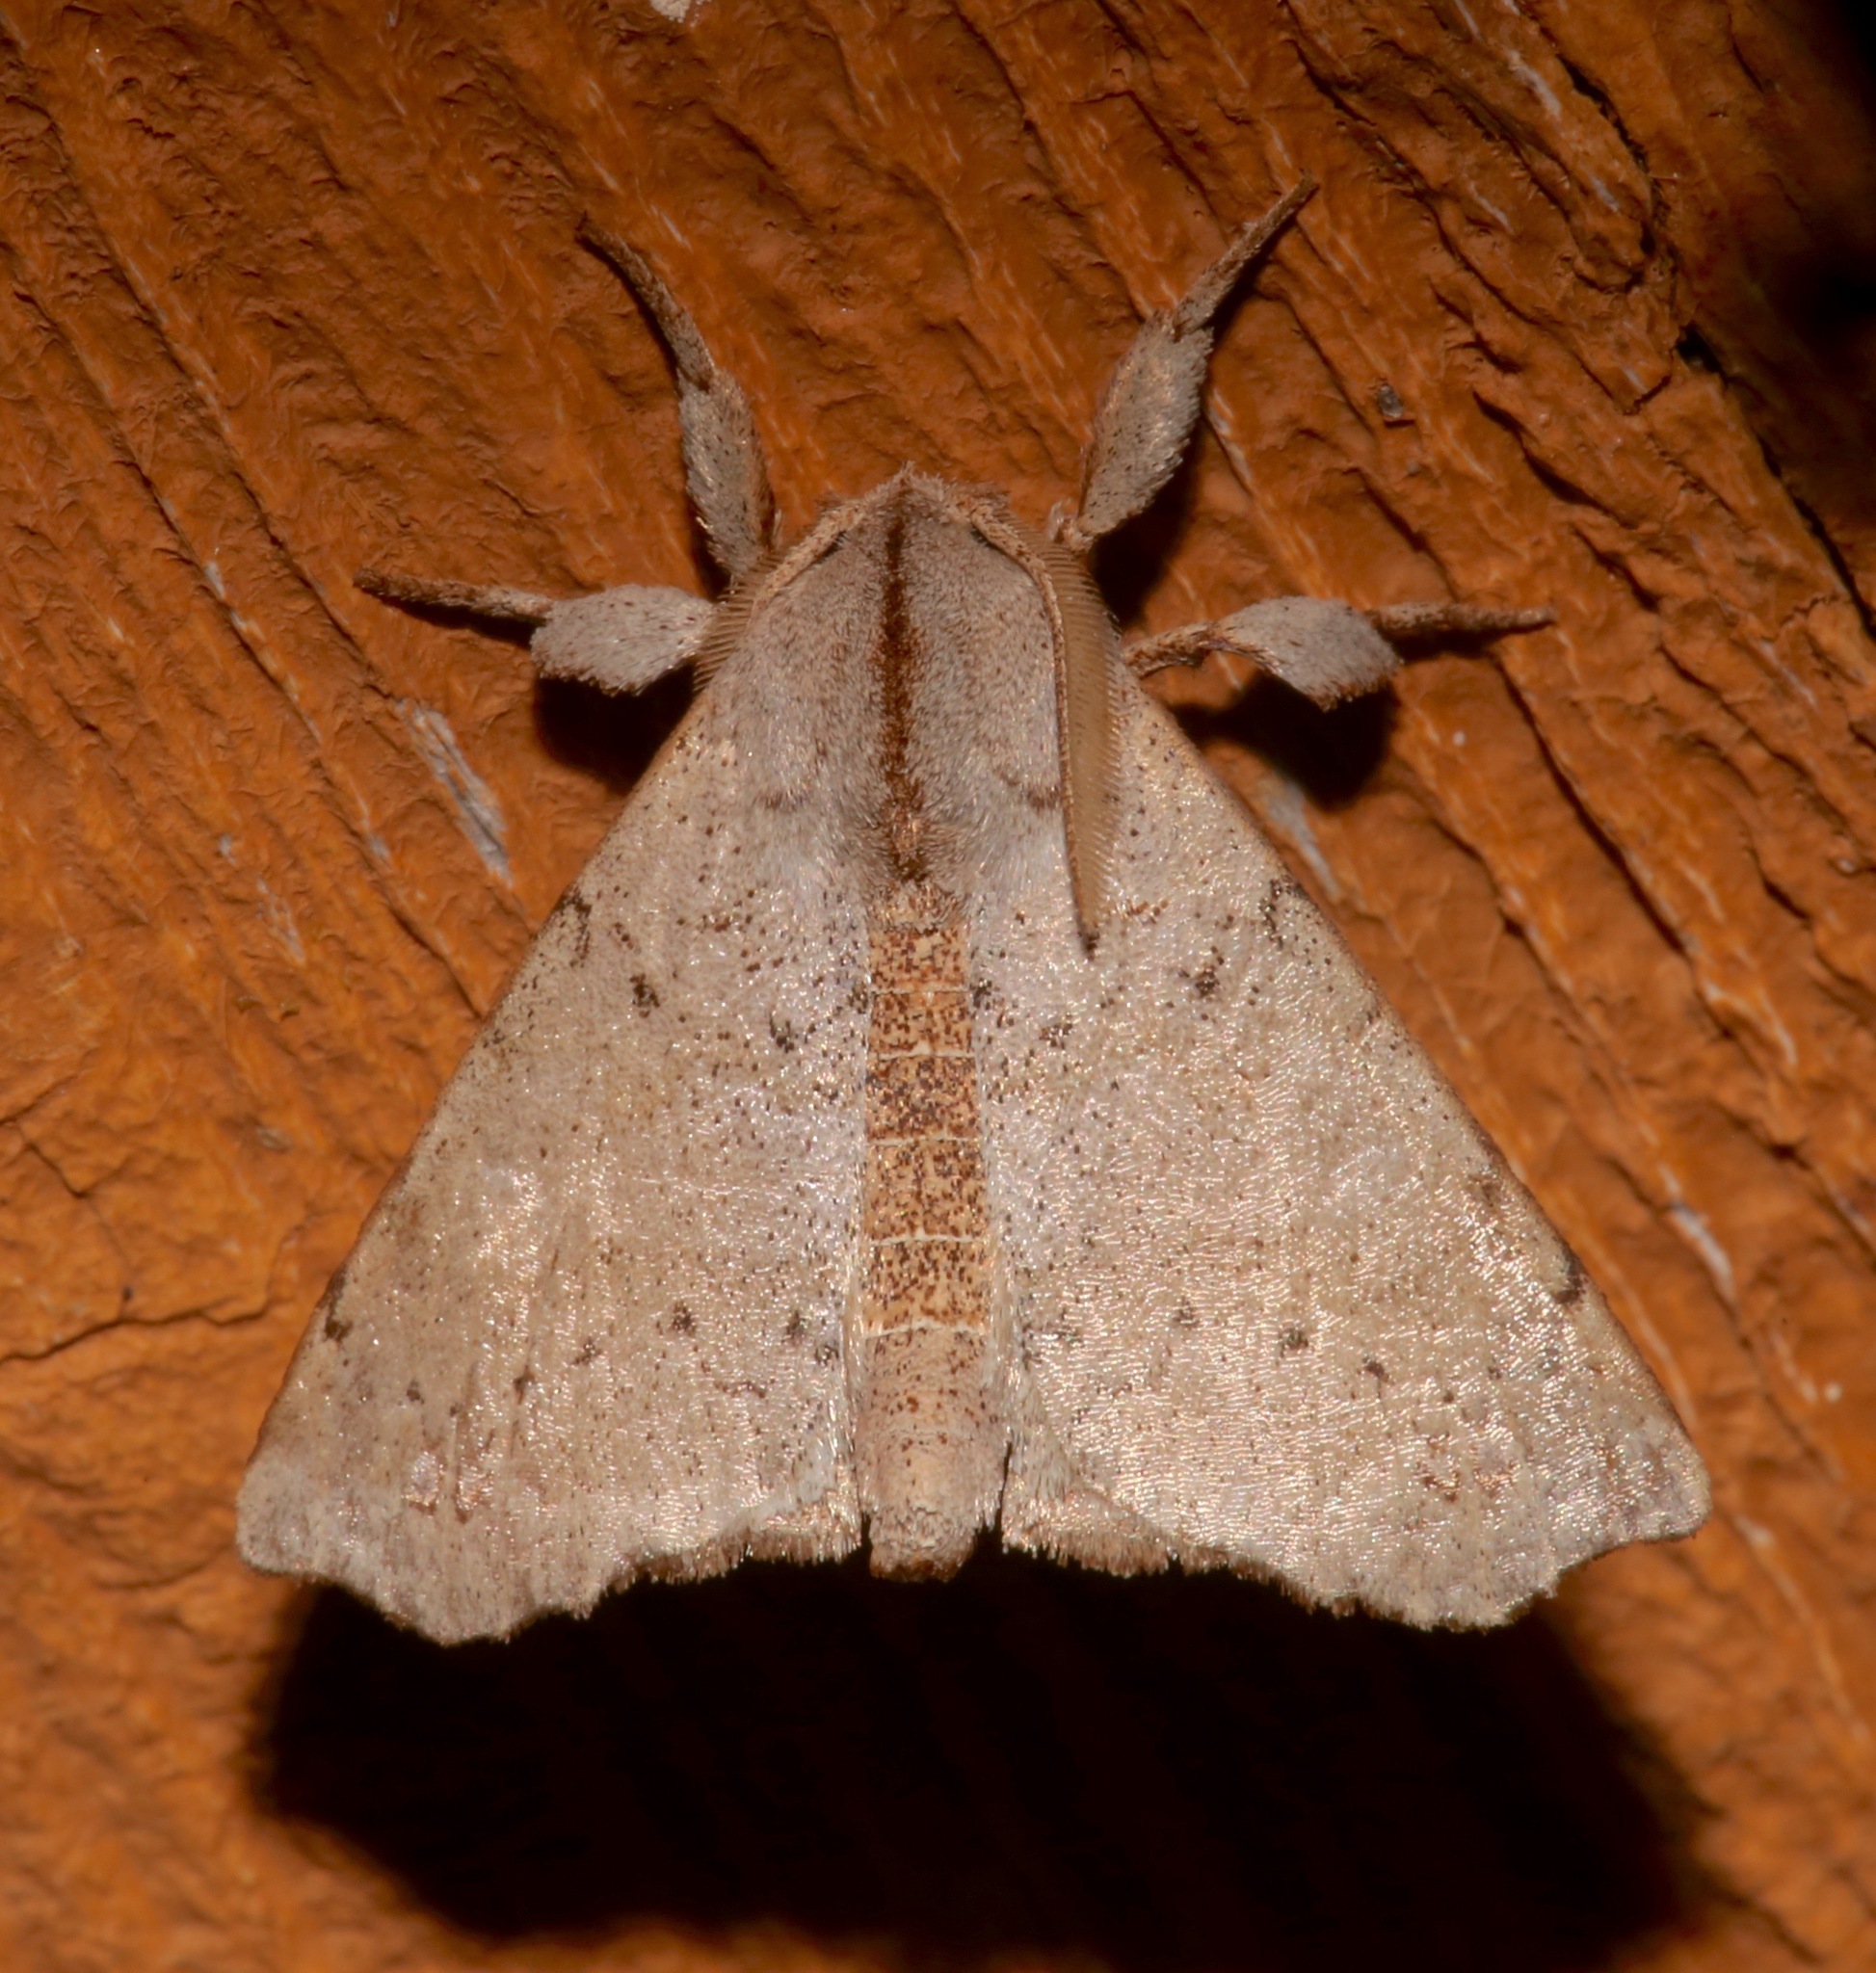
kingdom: Animalia
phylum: Arthropoda
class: Insecta
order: Lepidoptera
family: Apatelodidae
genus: Olceclostera
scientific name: Olceclostera angelica
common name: Angel moth
